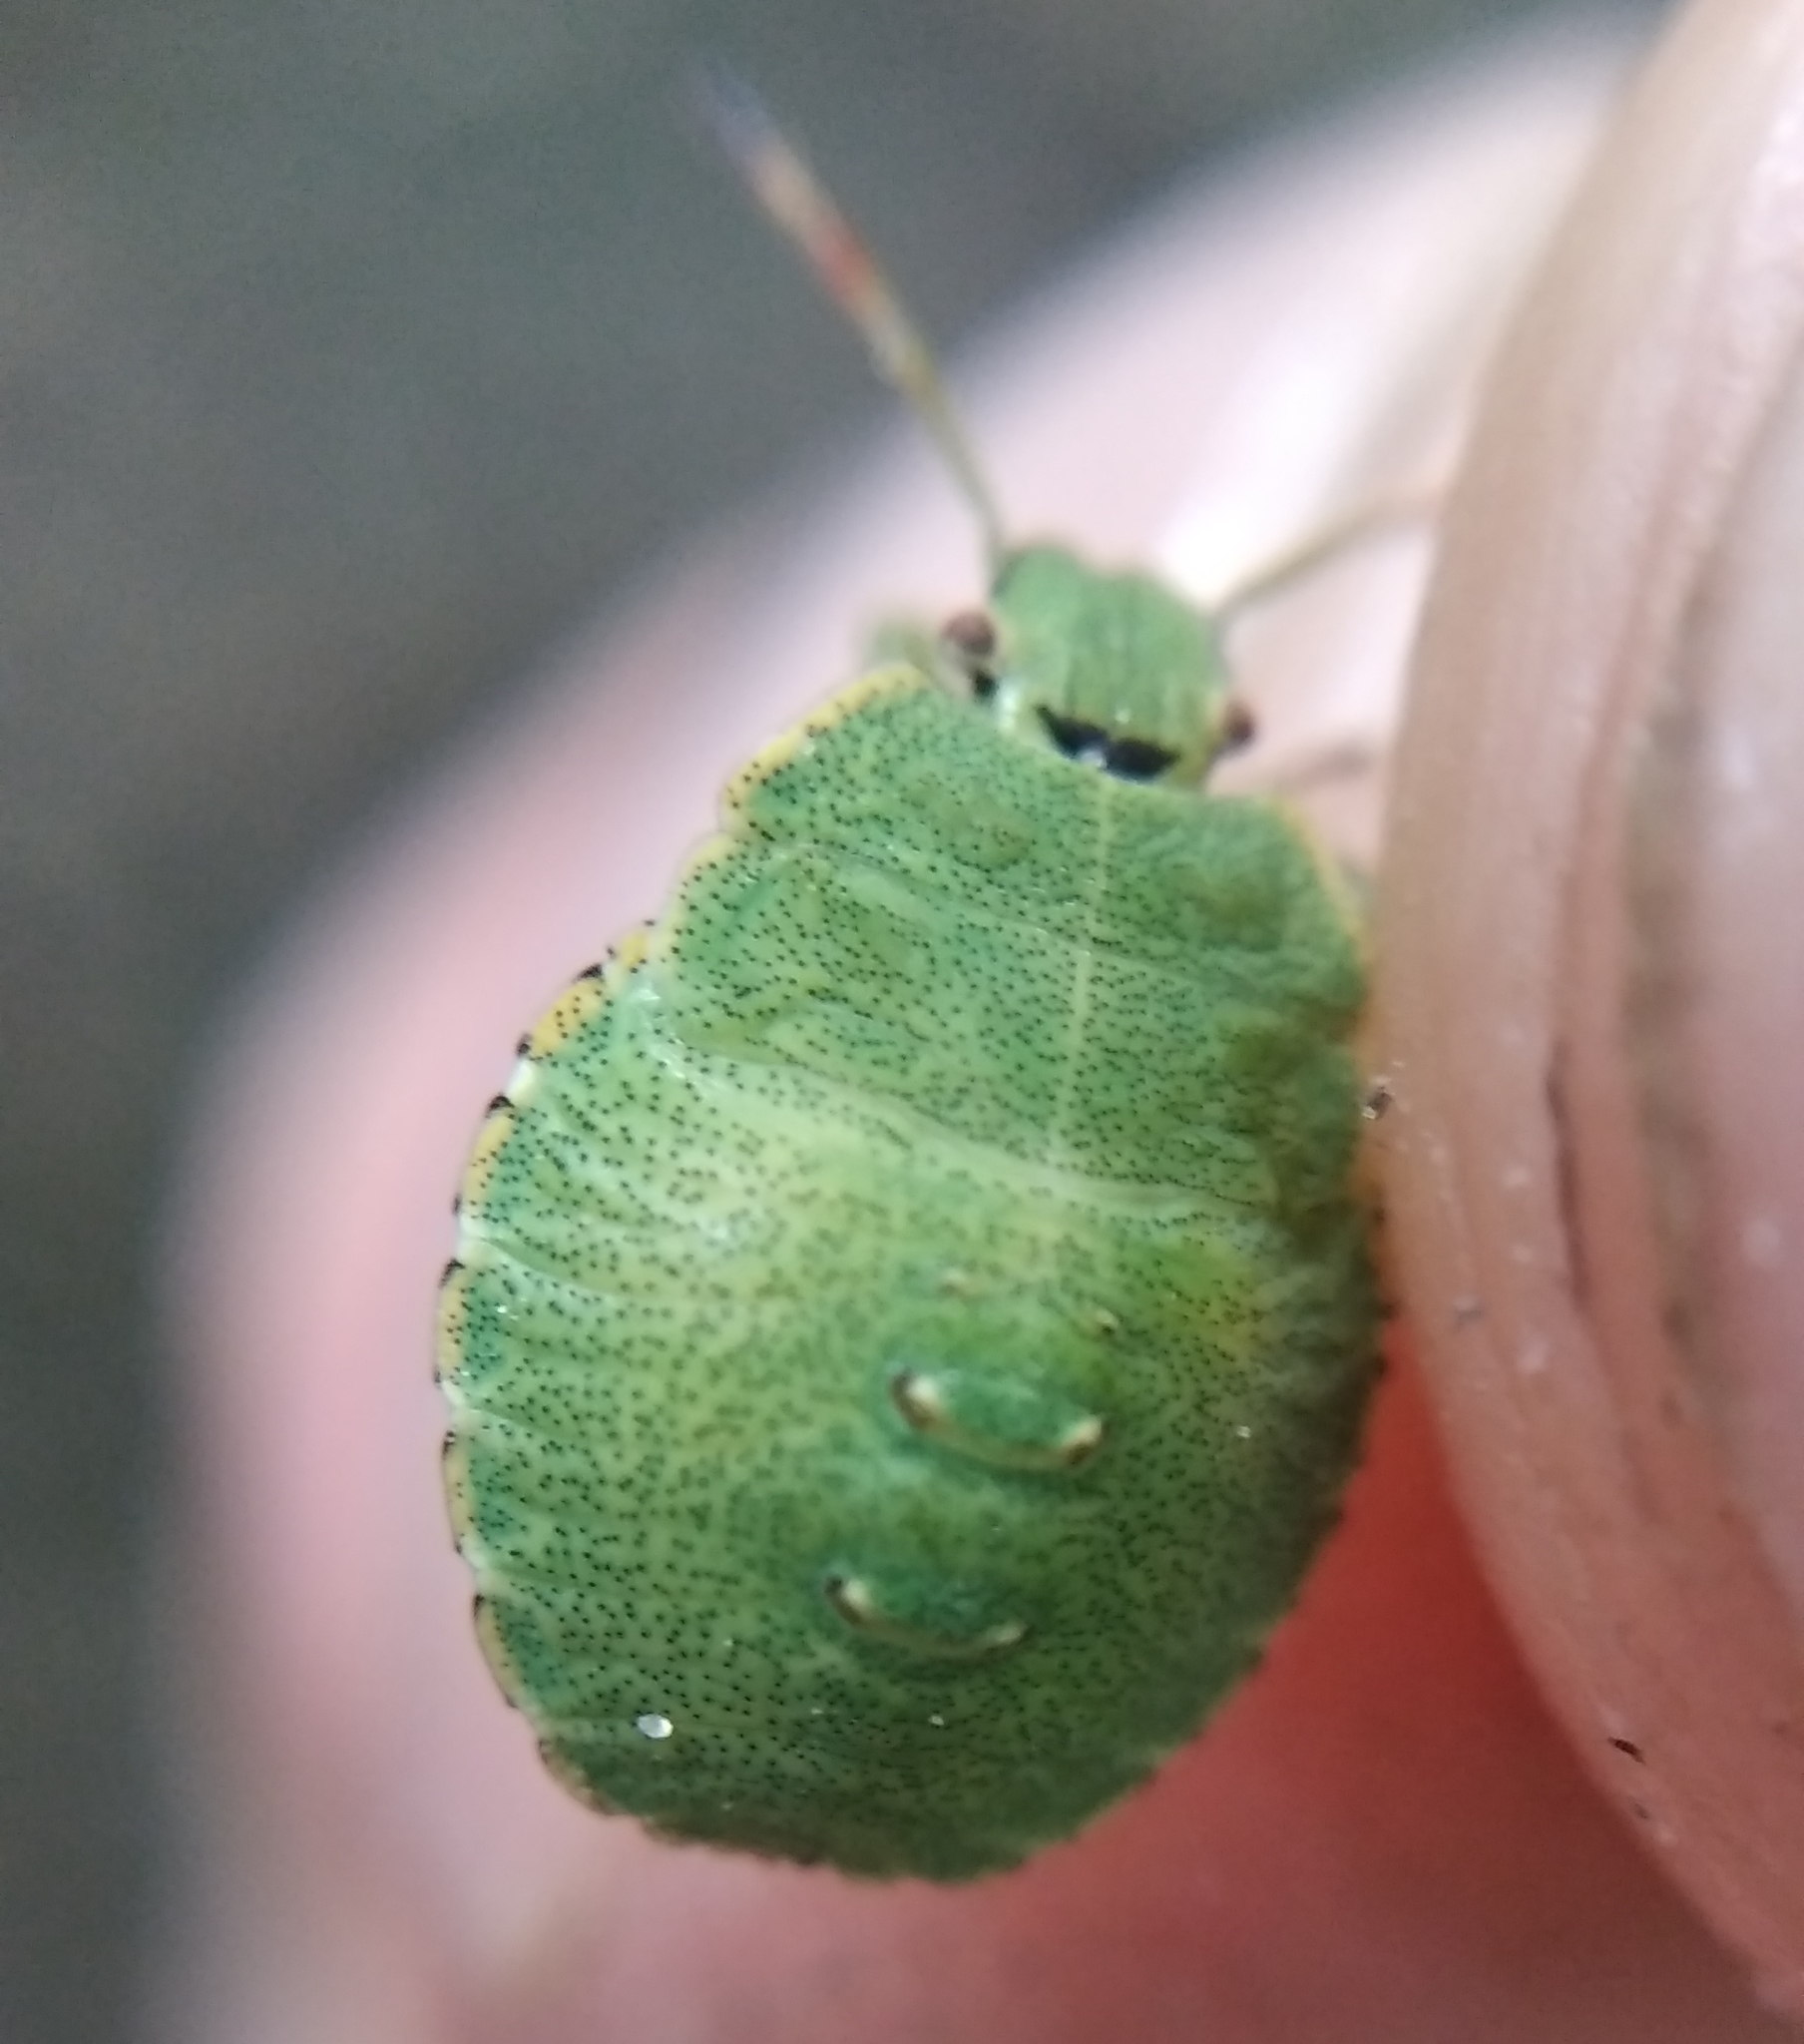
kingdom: Animalia
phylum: Arthropoda
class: Insecta
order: Hemiptera
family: Pentatomidae
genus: Palomena
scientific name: Palomena prasina
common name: Green shieldbug
